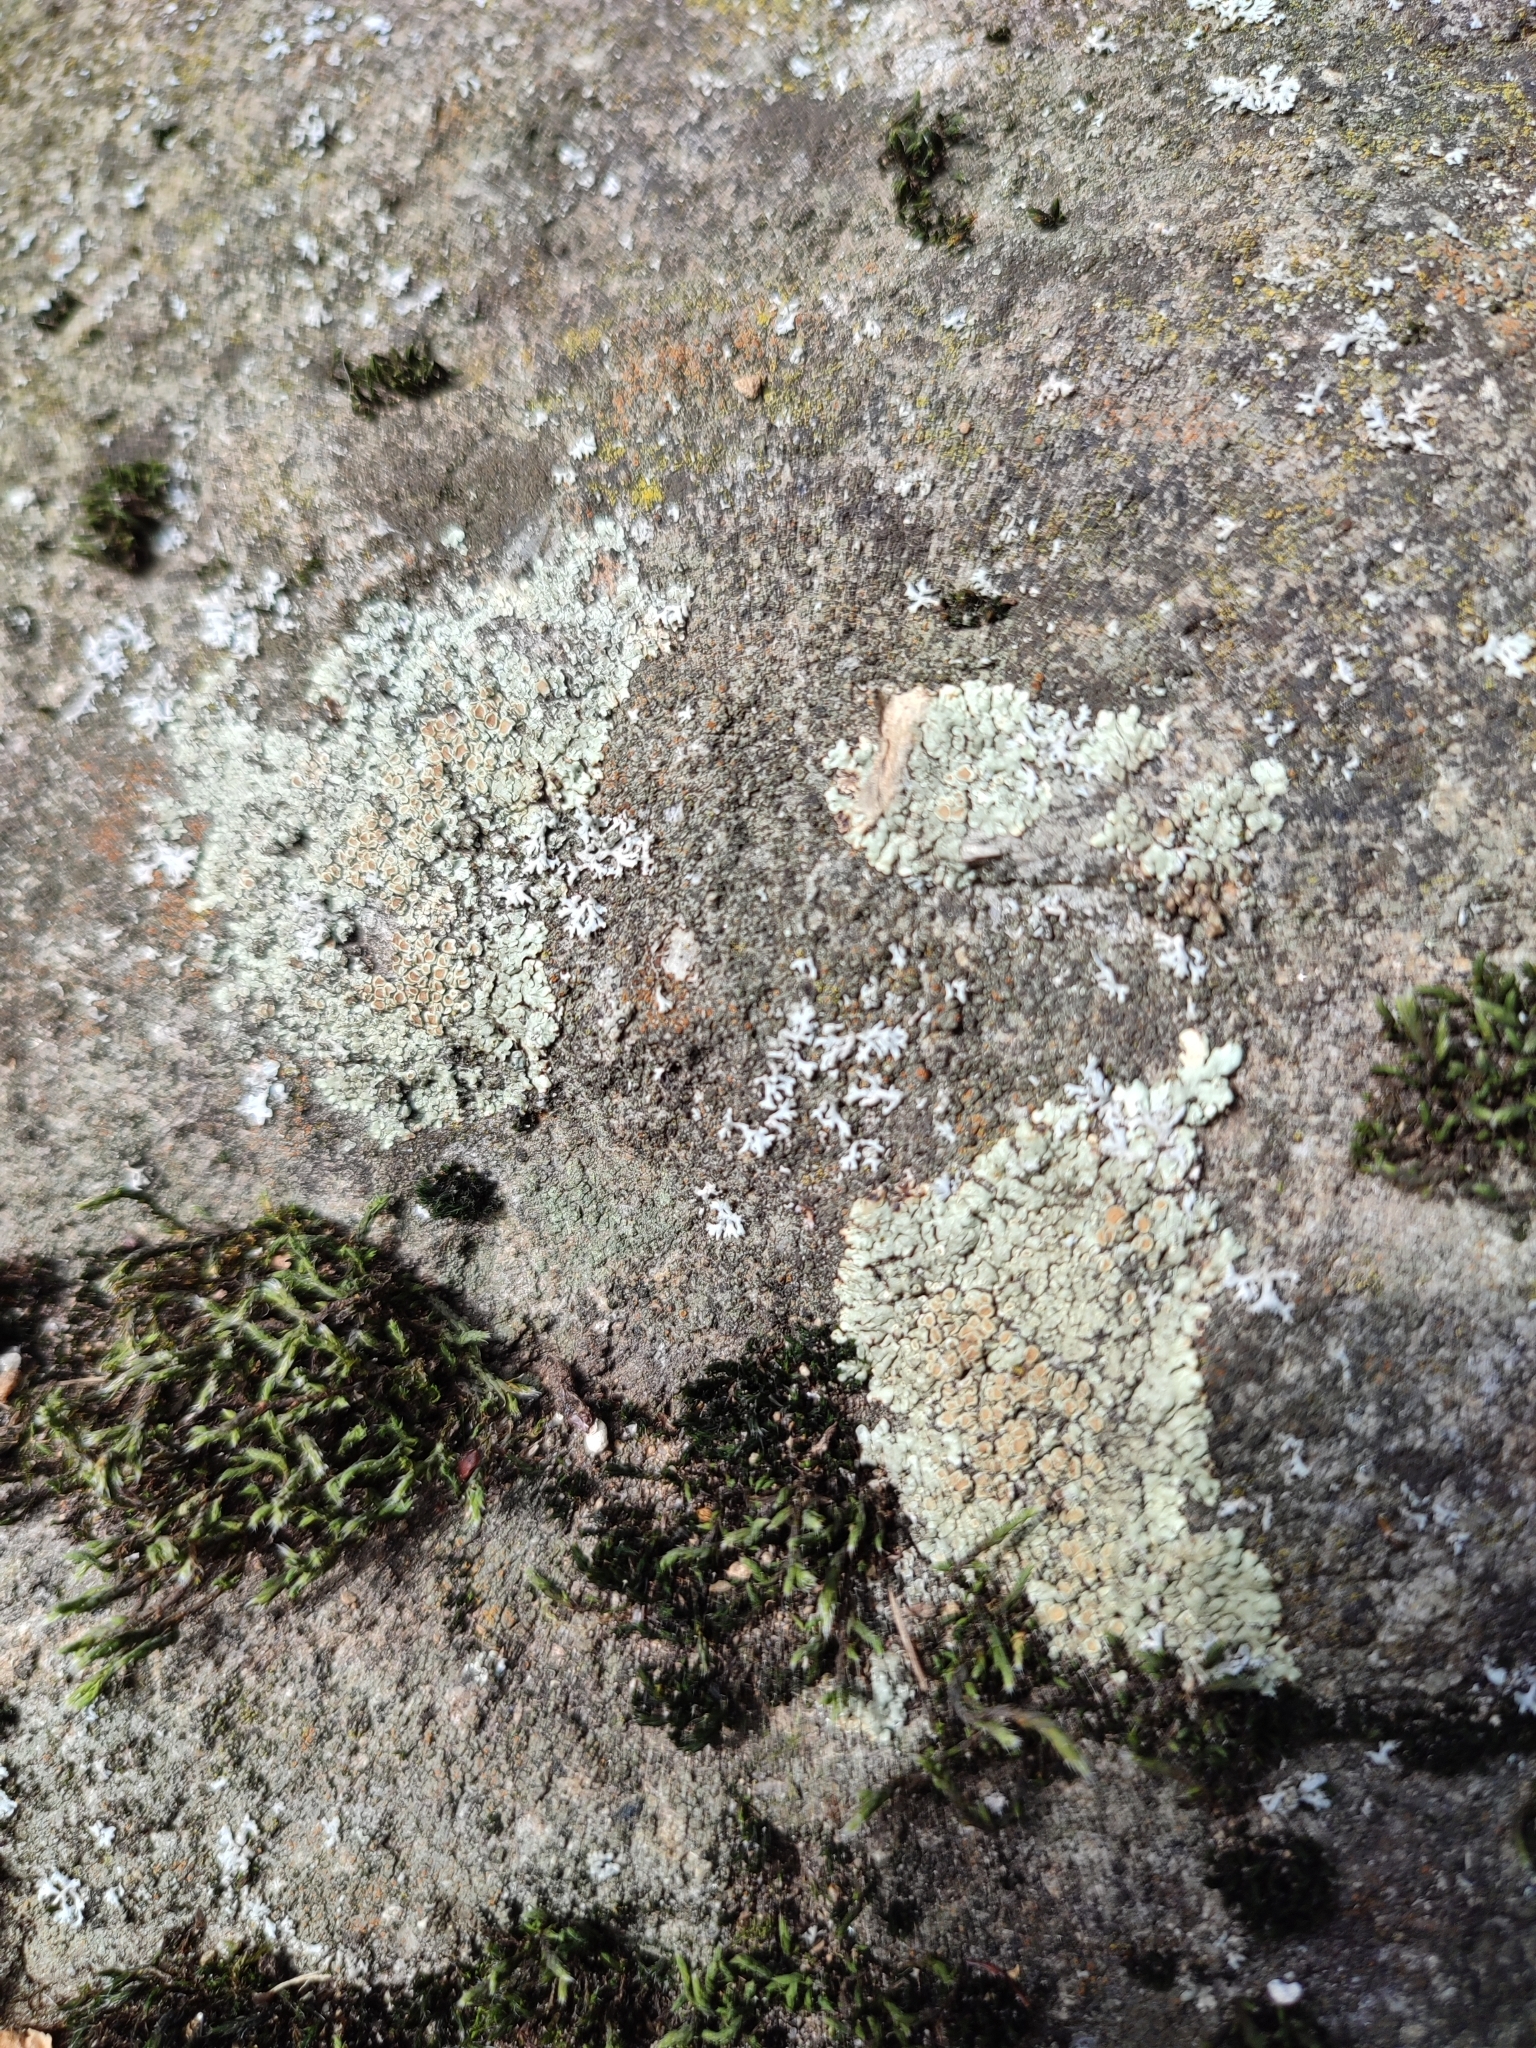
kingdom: Fungi
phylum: Ascomycota
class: Lecanoromycetes
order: Lecanorales
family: Lecanoraceae
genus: Protoparmeliopsis
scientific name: Protoparmeliopsis muralis
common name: Stonewall rim lichen
